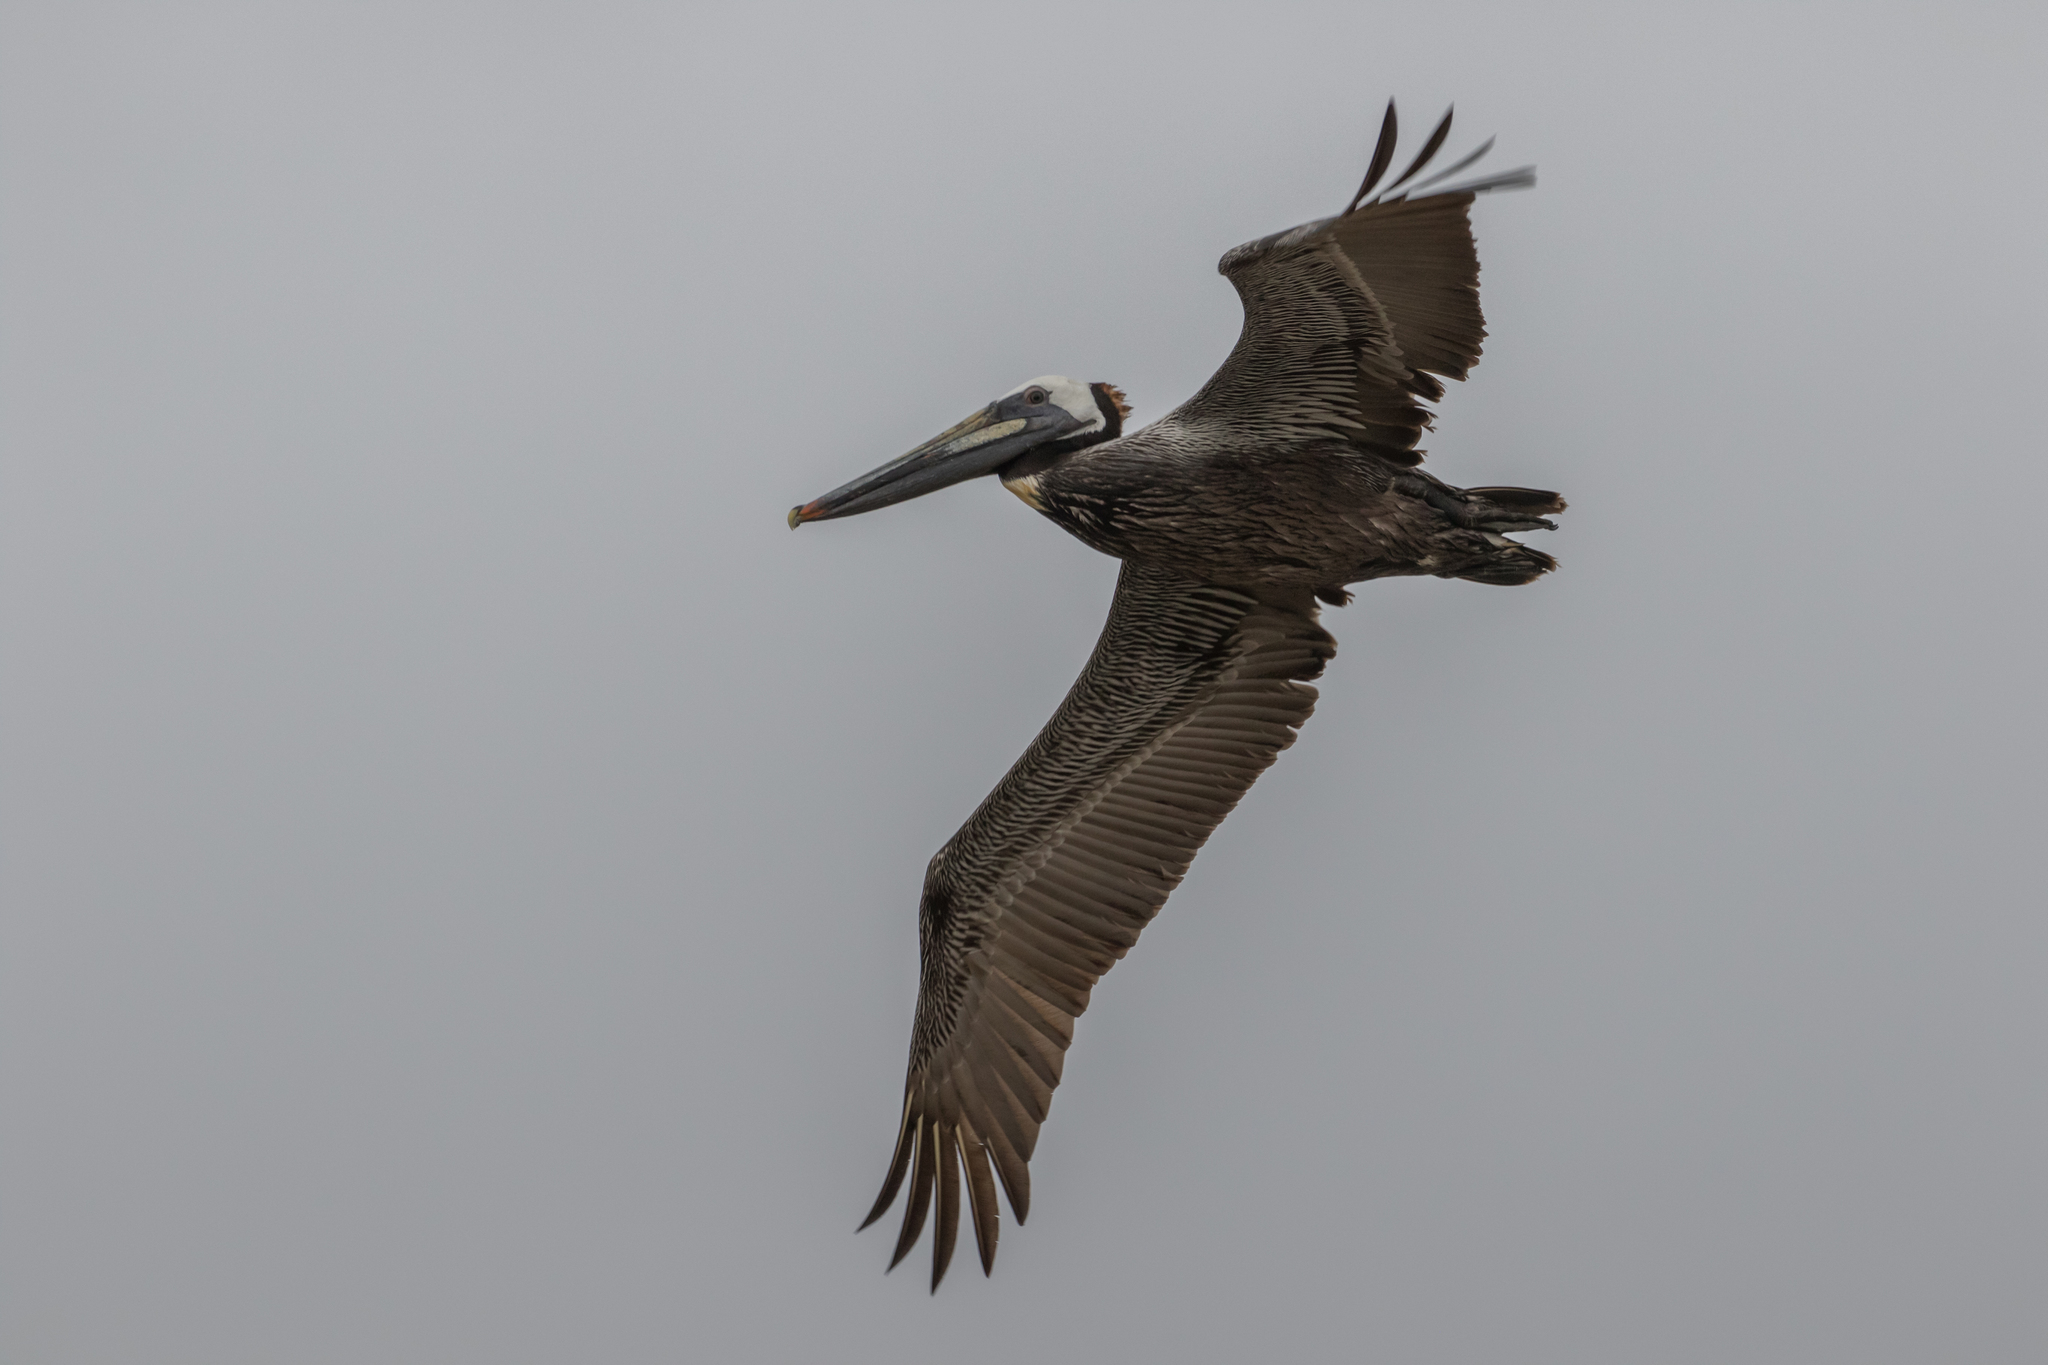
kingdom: Animalia
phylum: Chordata
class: Aves
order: Pelecaniformes
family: Pelecanidae
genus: Pelecanus
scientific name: Pelecanus occidentalis
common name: Brown pelican
